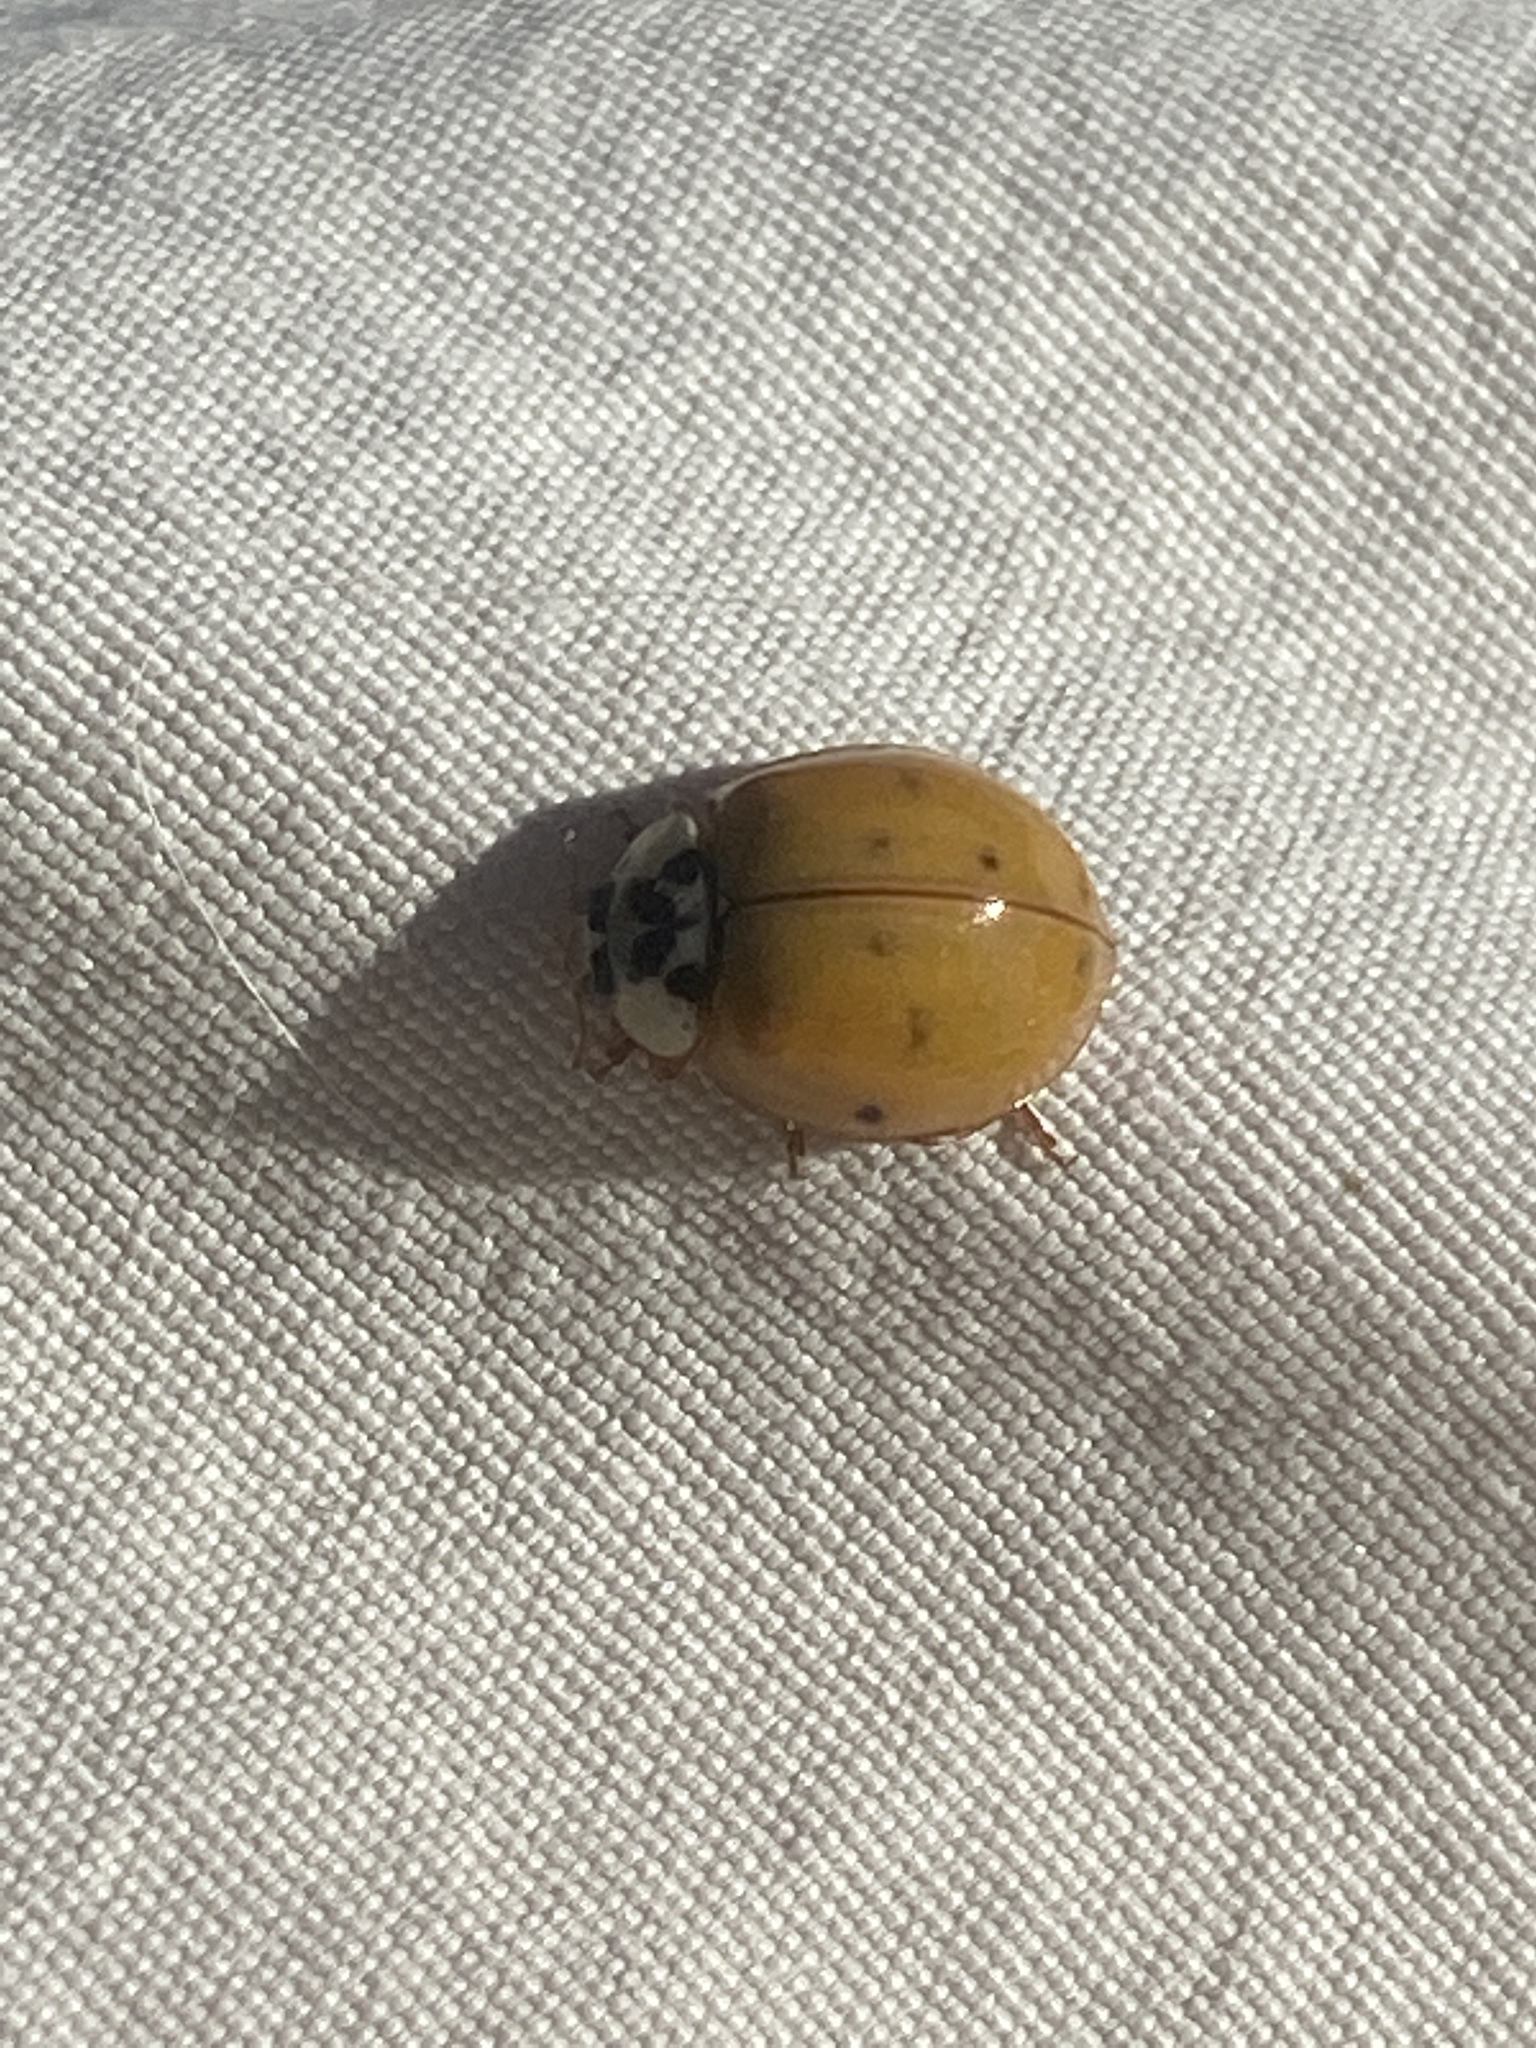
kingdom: Animalia
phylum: Arthropoda
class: Insecta
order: Coleoptera
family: Coccinellidae
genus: Harmonia
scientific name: Harmonia axyridis
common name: Harlequin ladybird
